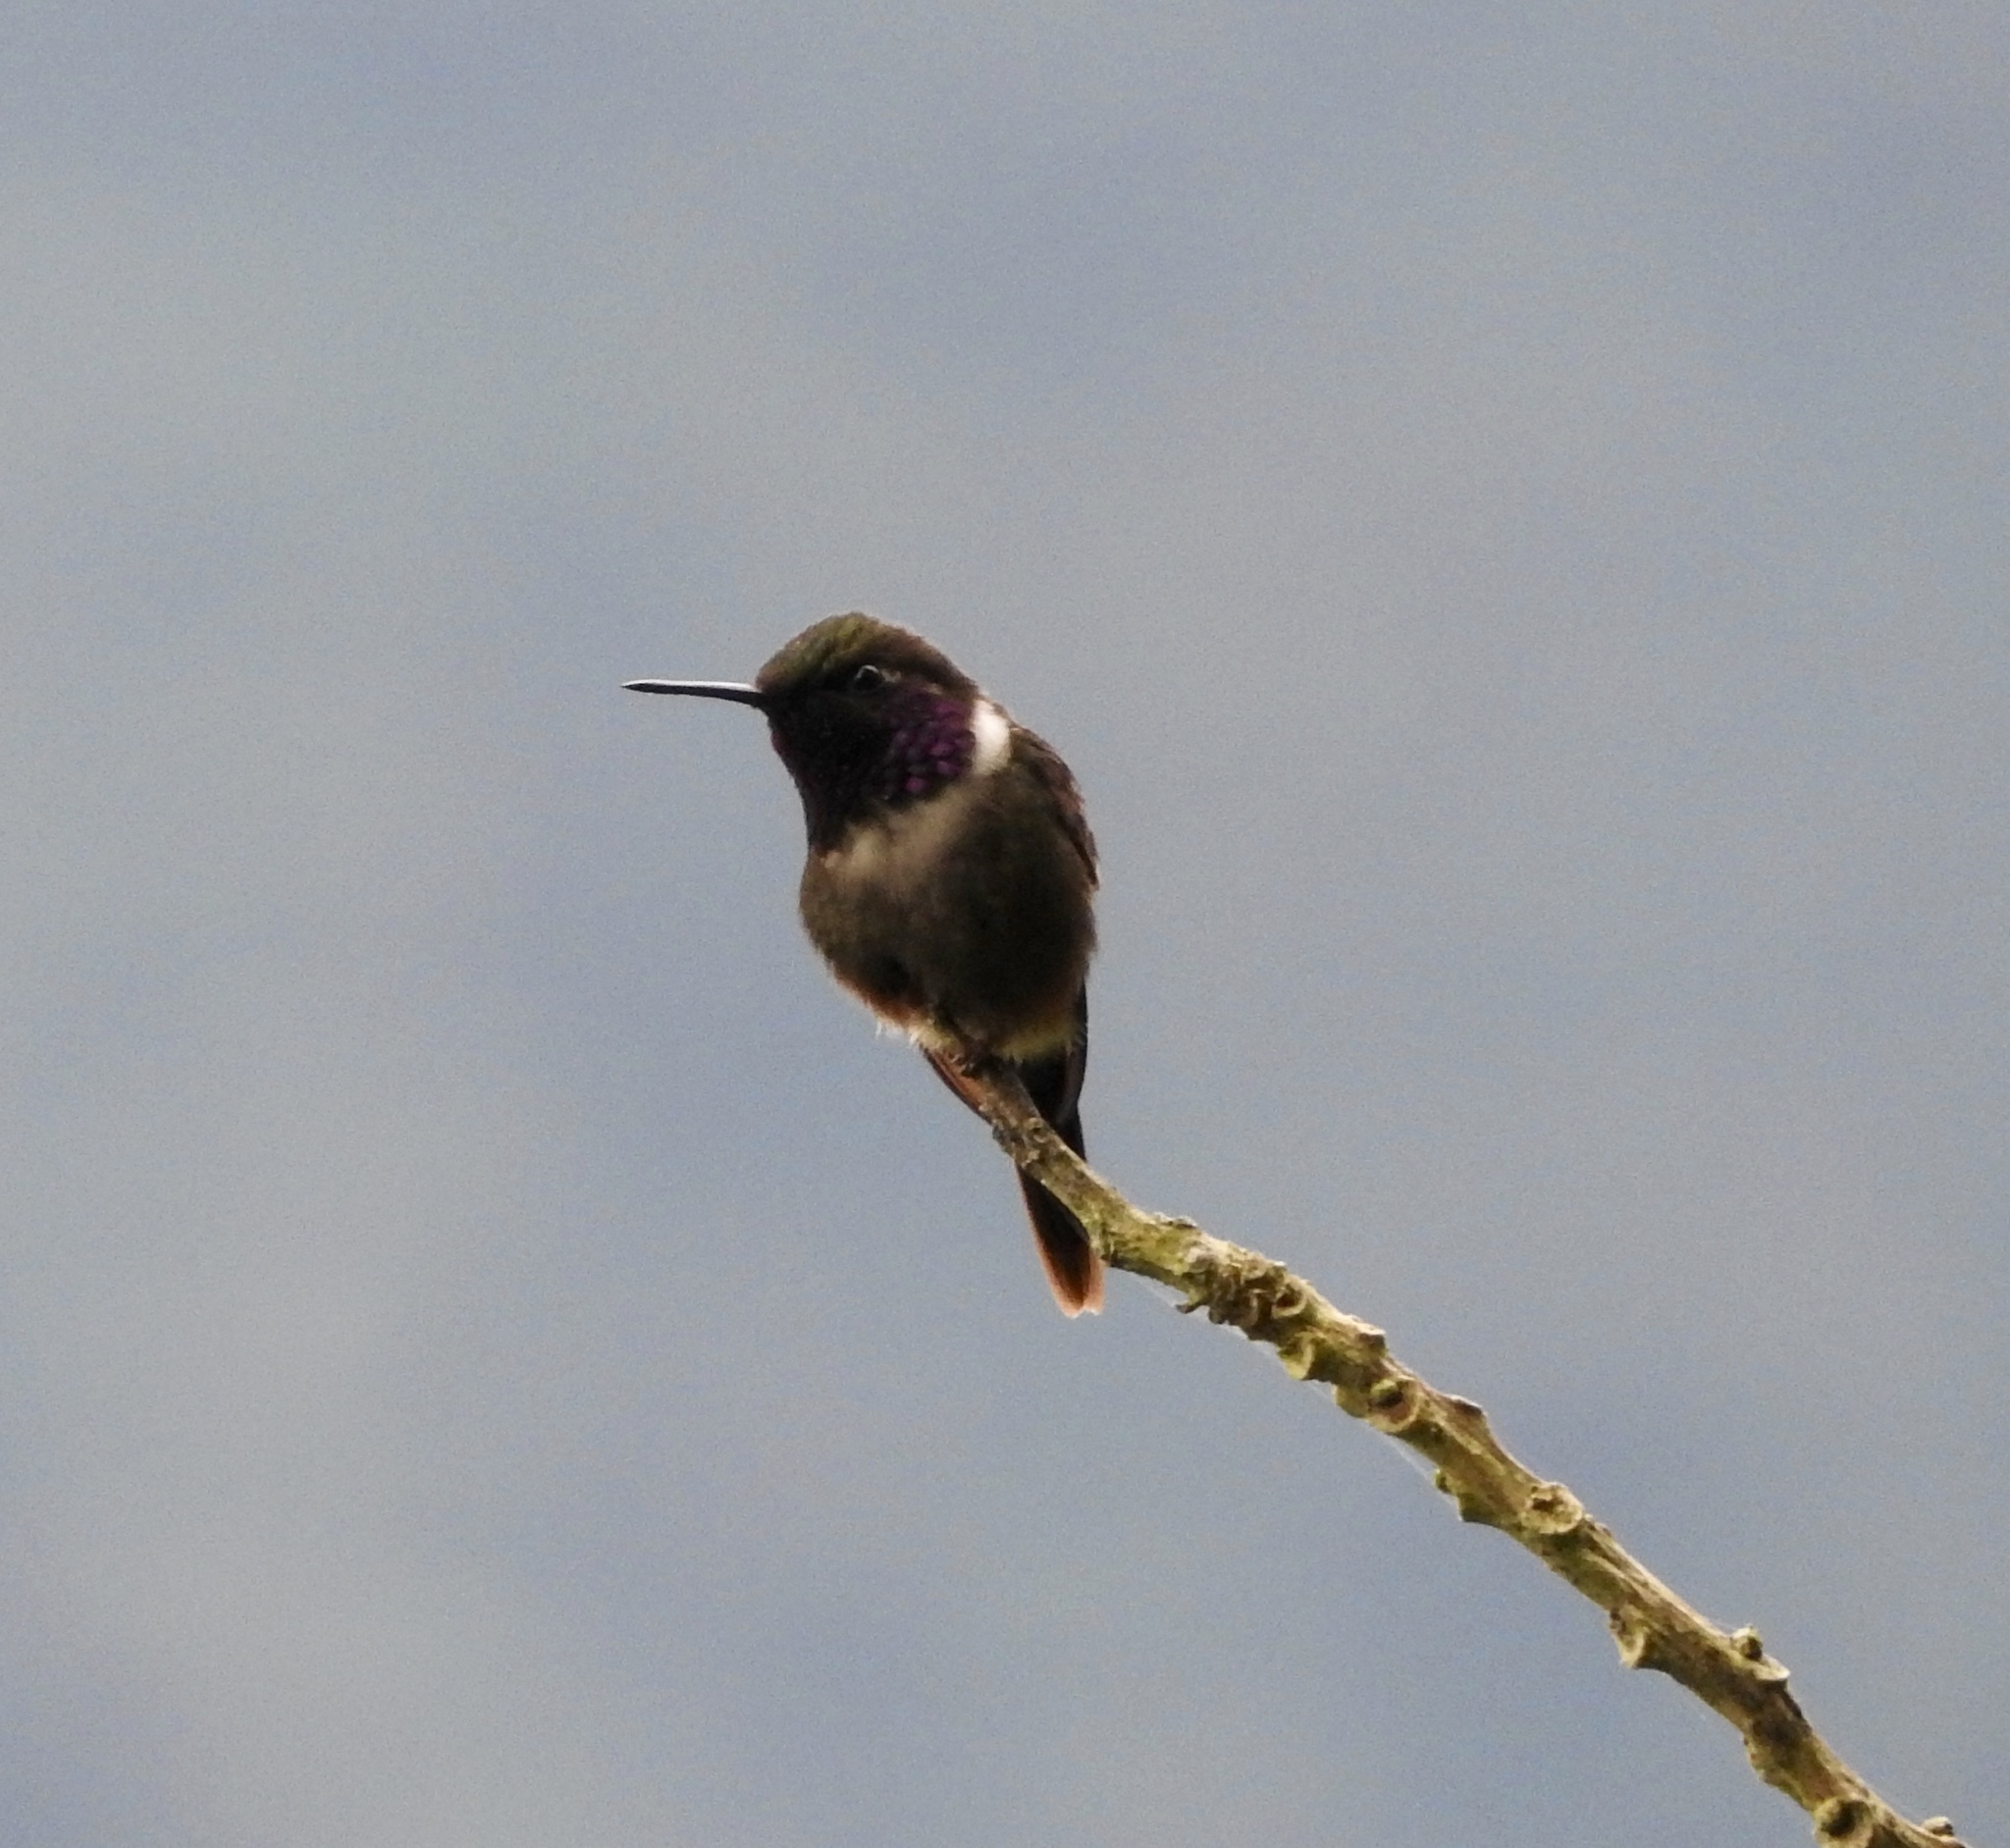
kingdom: Animalia
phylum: Chordata
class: Aves
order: Apodiformes
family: Trochilidae
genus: Calliphlox
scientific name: Calliphlox mitchellii
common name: Purple-throated woodstar
